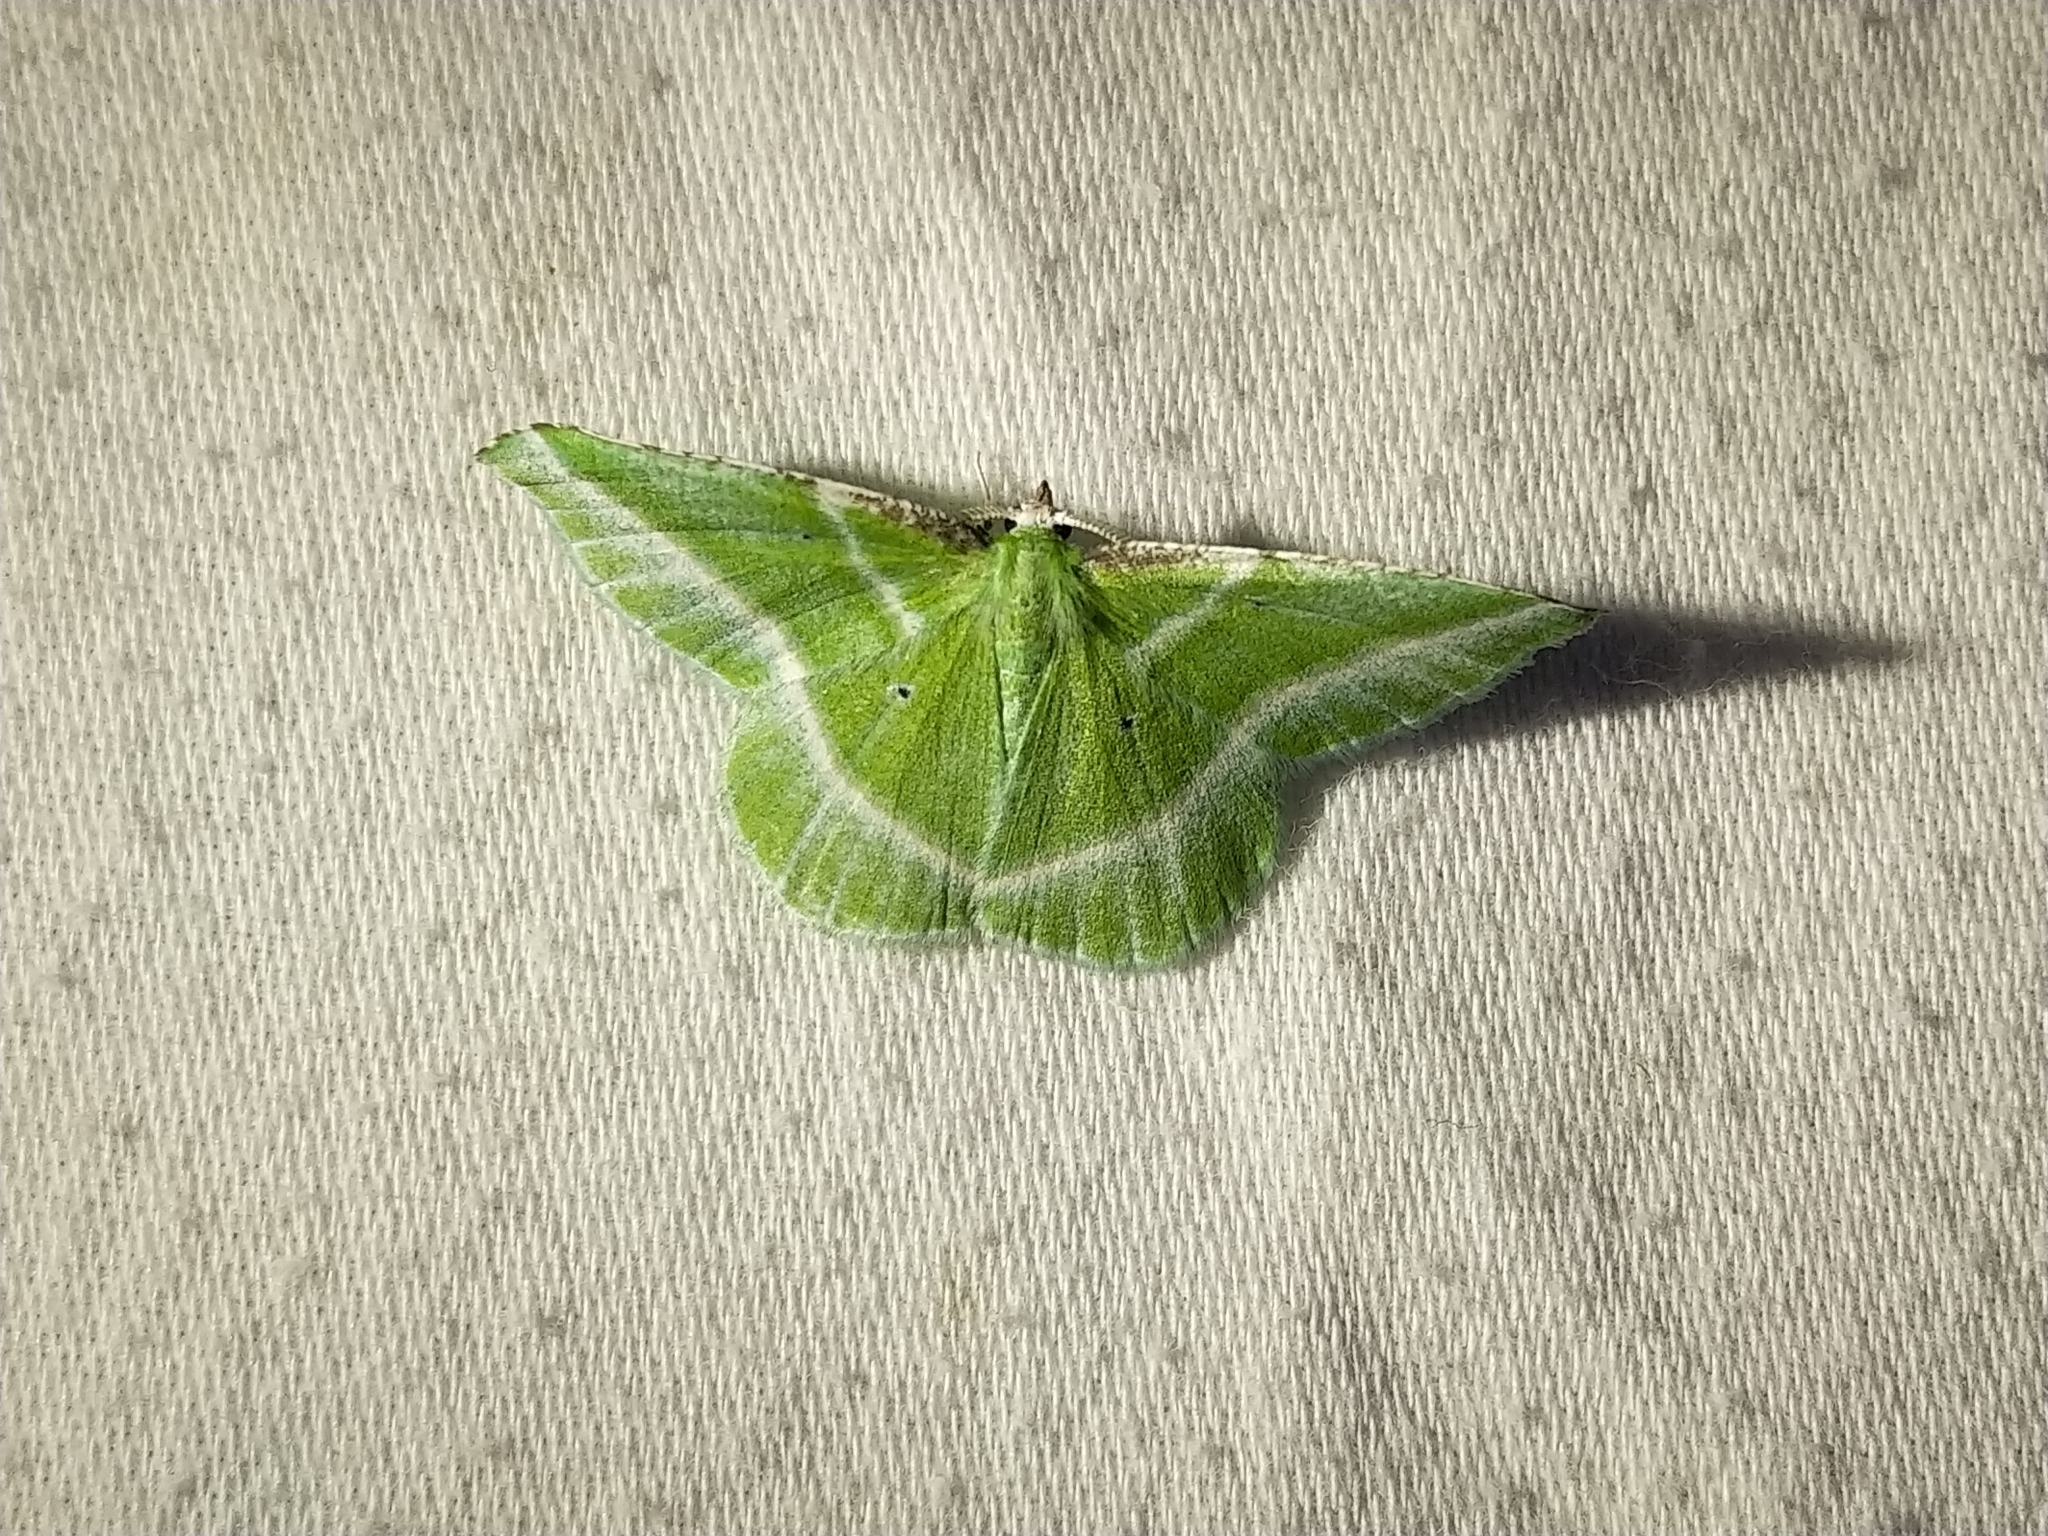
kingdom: Animalia
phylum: Arthropoda
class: Insecta
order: Lepidoptera
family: Geometridae
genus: Dichorda
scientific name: Dichorda iridaria
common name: Showy emerald
